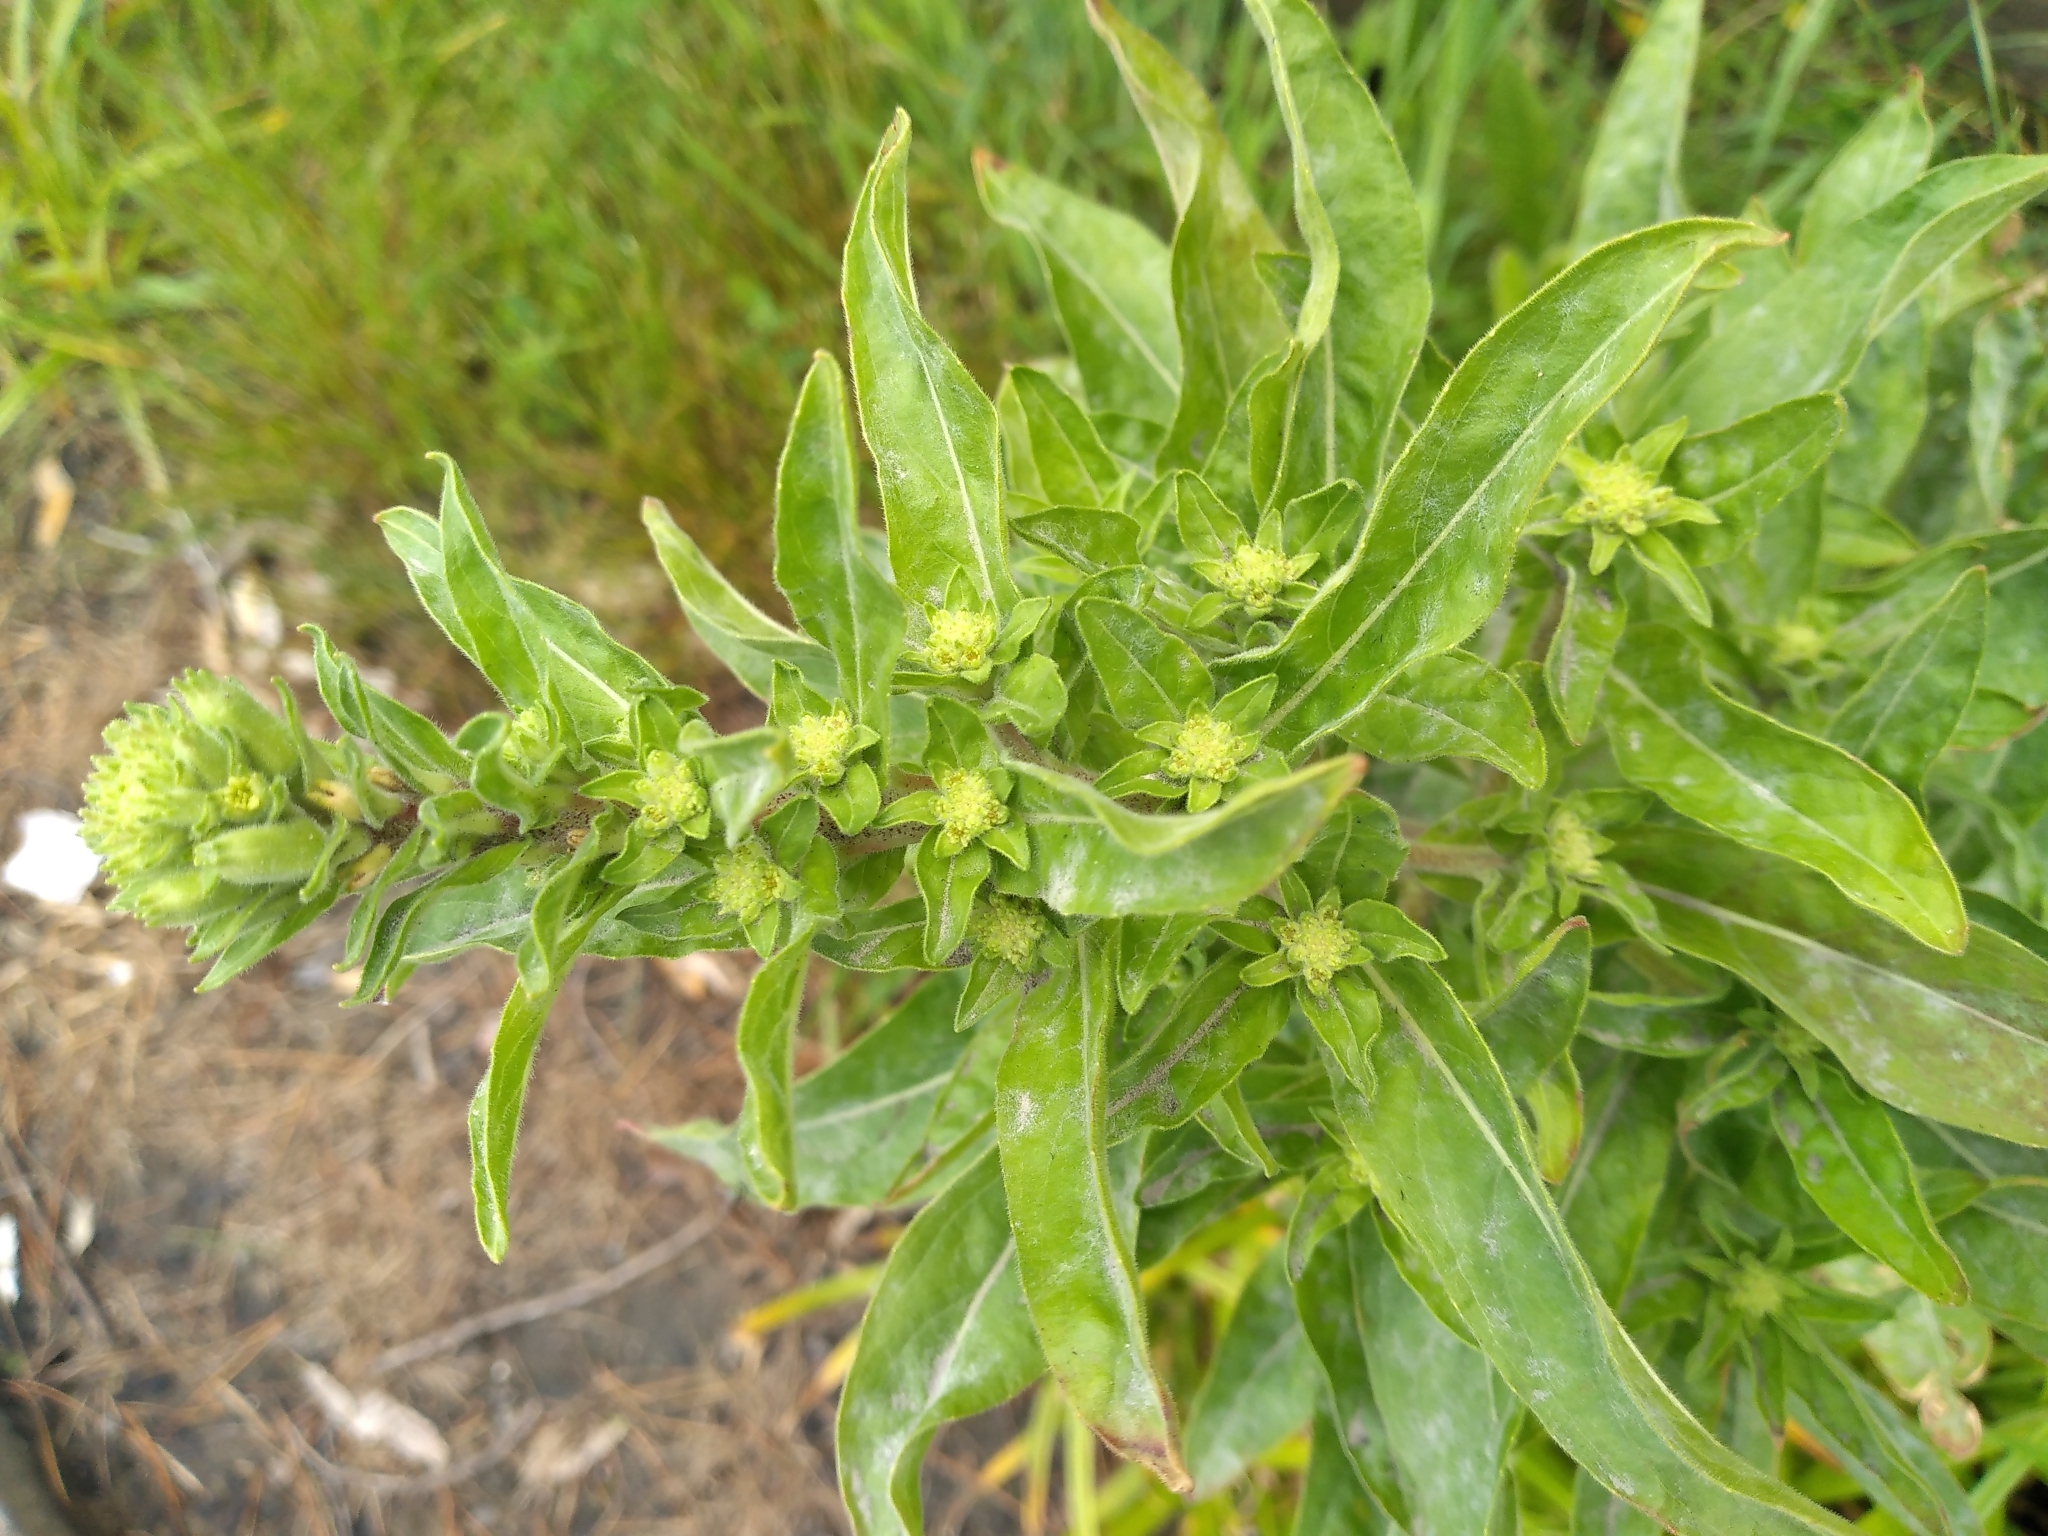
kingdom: Plantae
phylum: Tracheophyta
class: Magnoliopsida
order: Myrtales
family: Onagraceae
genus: Oenothera
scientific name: Oenothera glazioviana
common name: Large-flowered evening-primrose
